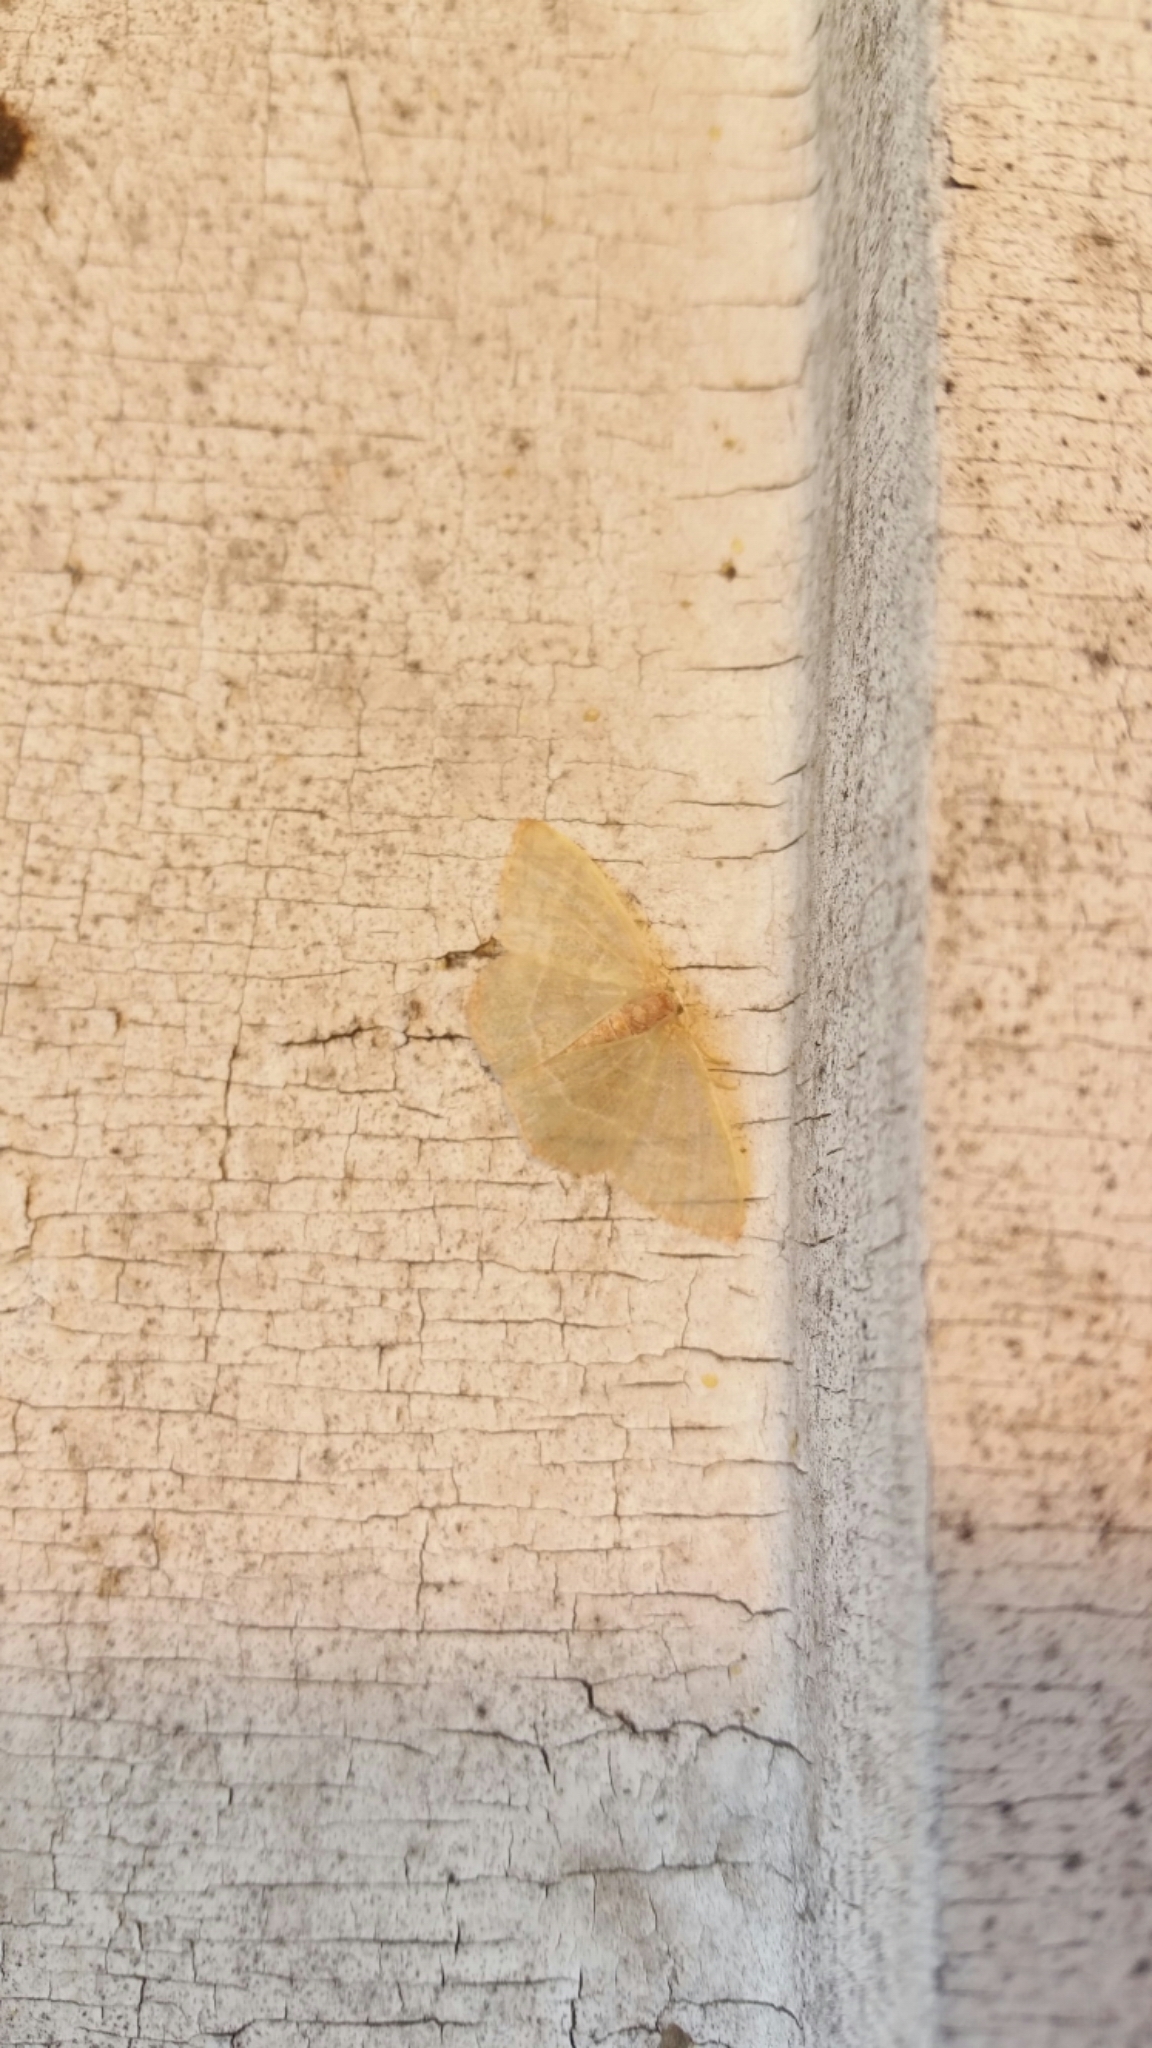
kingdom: Animalia
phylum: Arthropoda
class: Insecta
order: Lepidoptera
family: Geometridae
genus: Nemoria
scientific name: Nemoria bistriaria
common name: Red-fringed emerald
